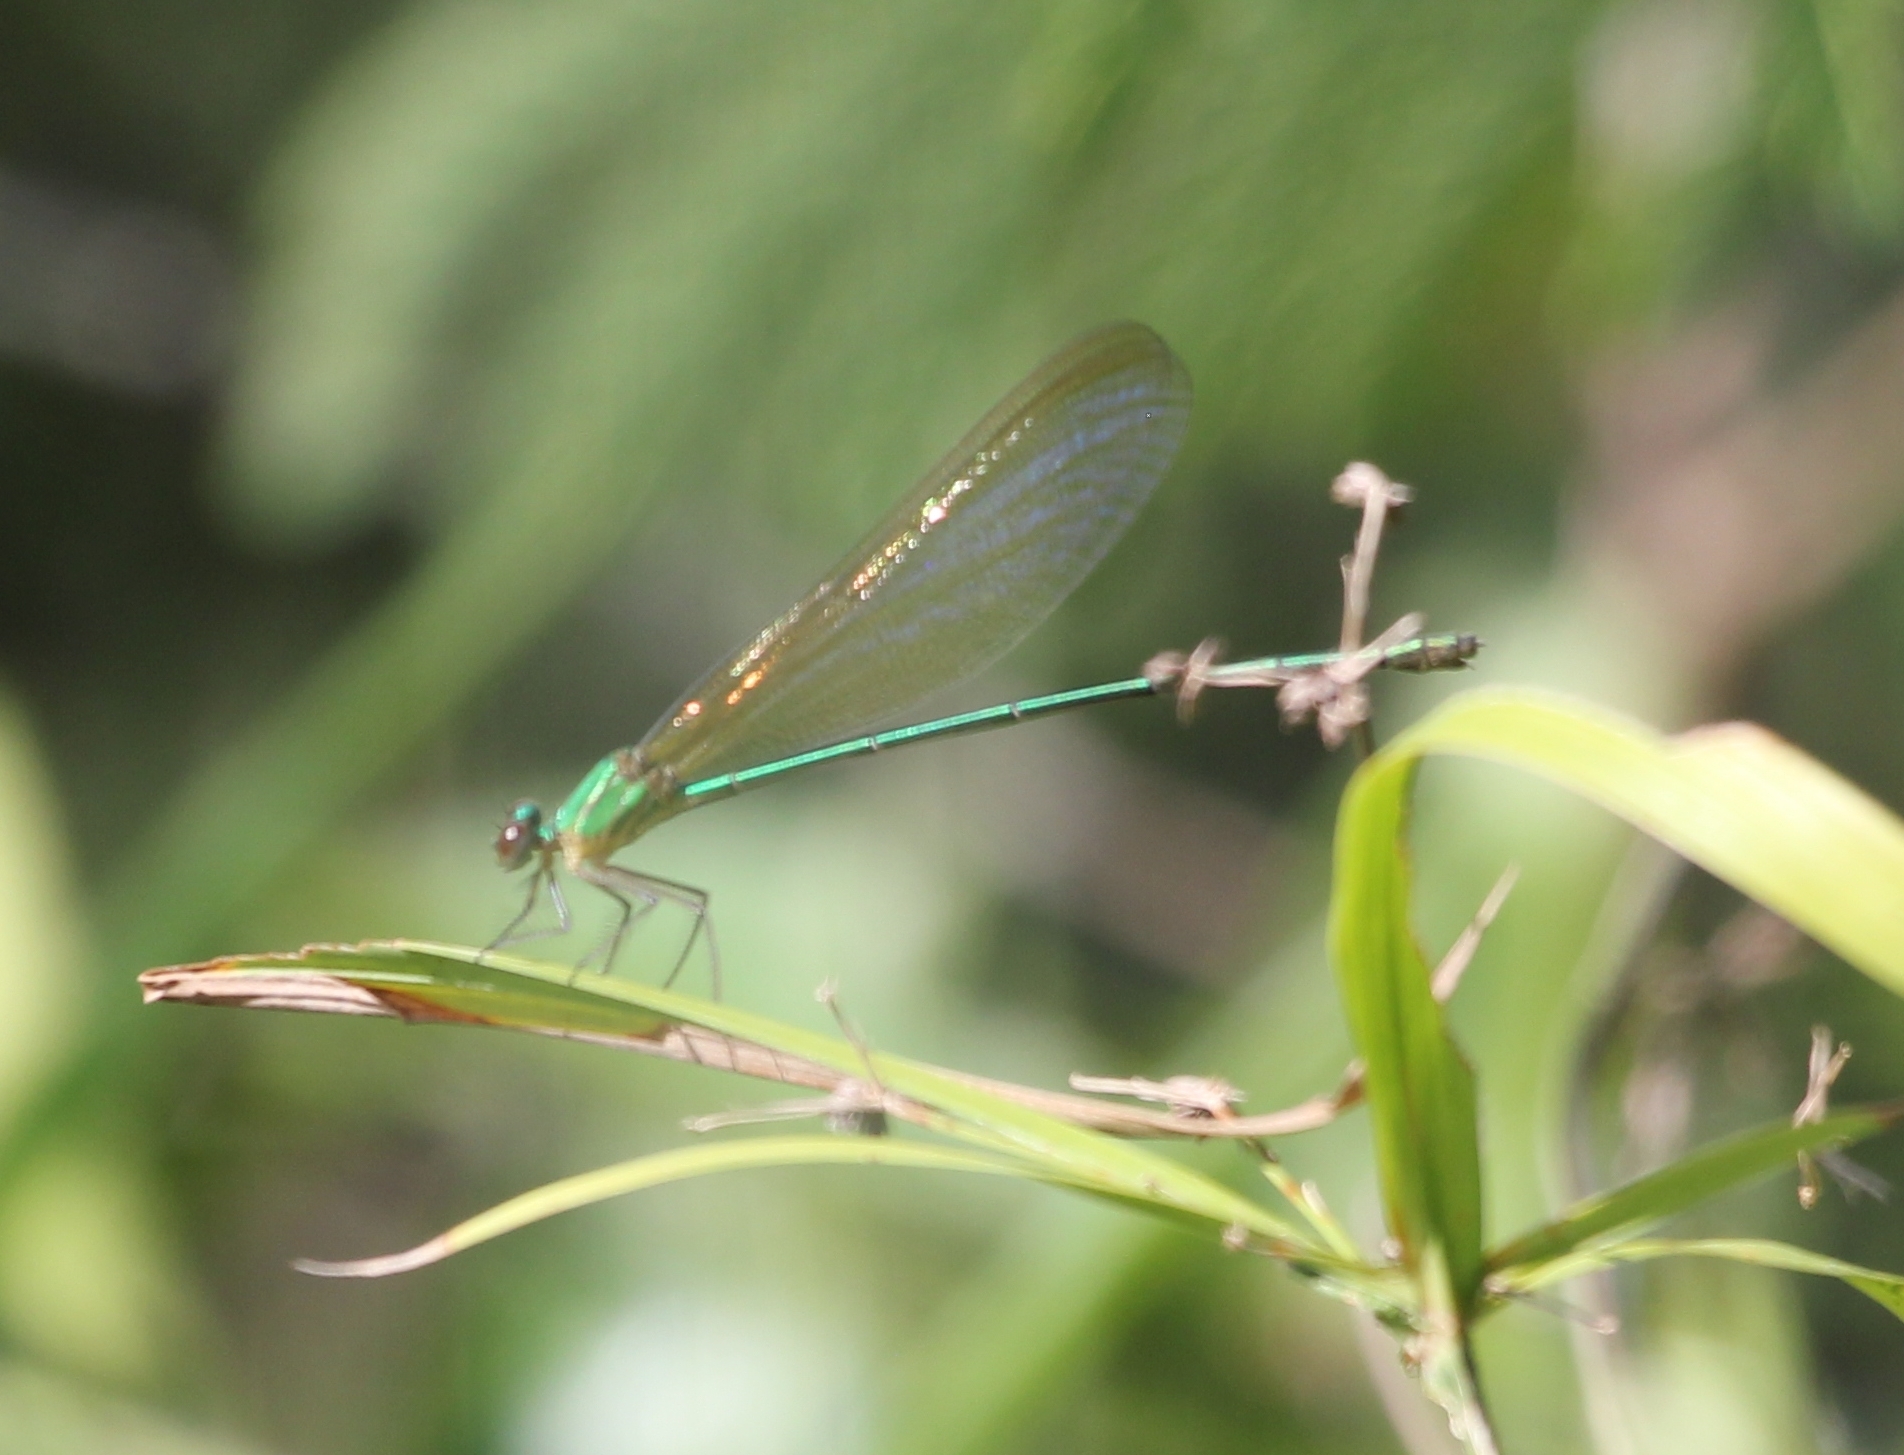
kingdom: Animalia
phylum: Arthropoda
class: Insecta
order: Odonata
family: Calopterygidae
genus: Vestalis
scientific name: Vestalis gracilis
